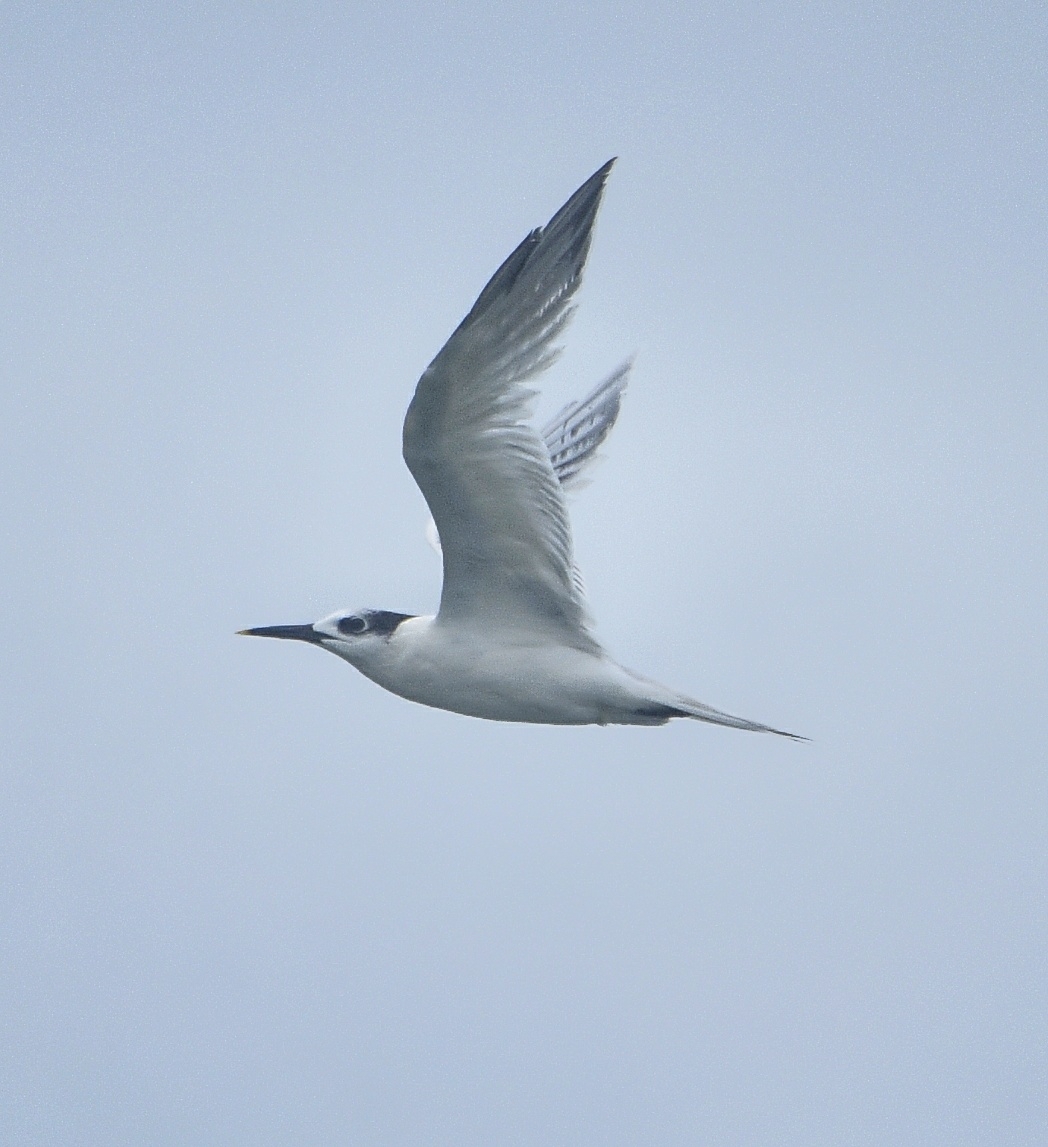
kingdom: Animalia
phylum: Chordata
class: Aves
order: Charadriiformes
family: Laridae
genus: Thalasseus
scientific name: Thalasseus sandvicensis
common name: Sandwich tern
